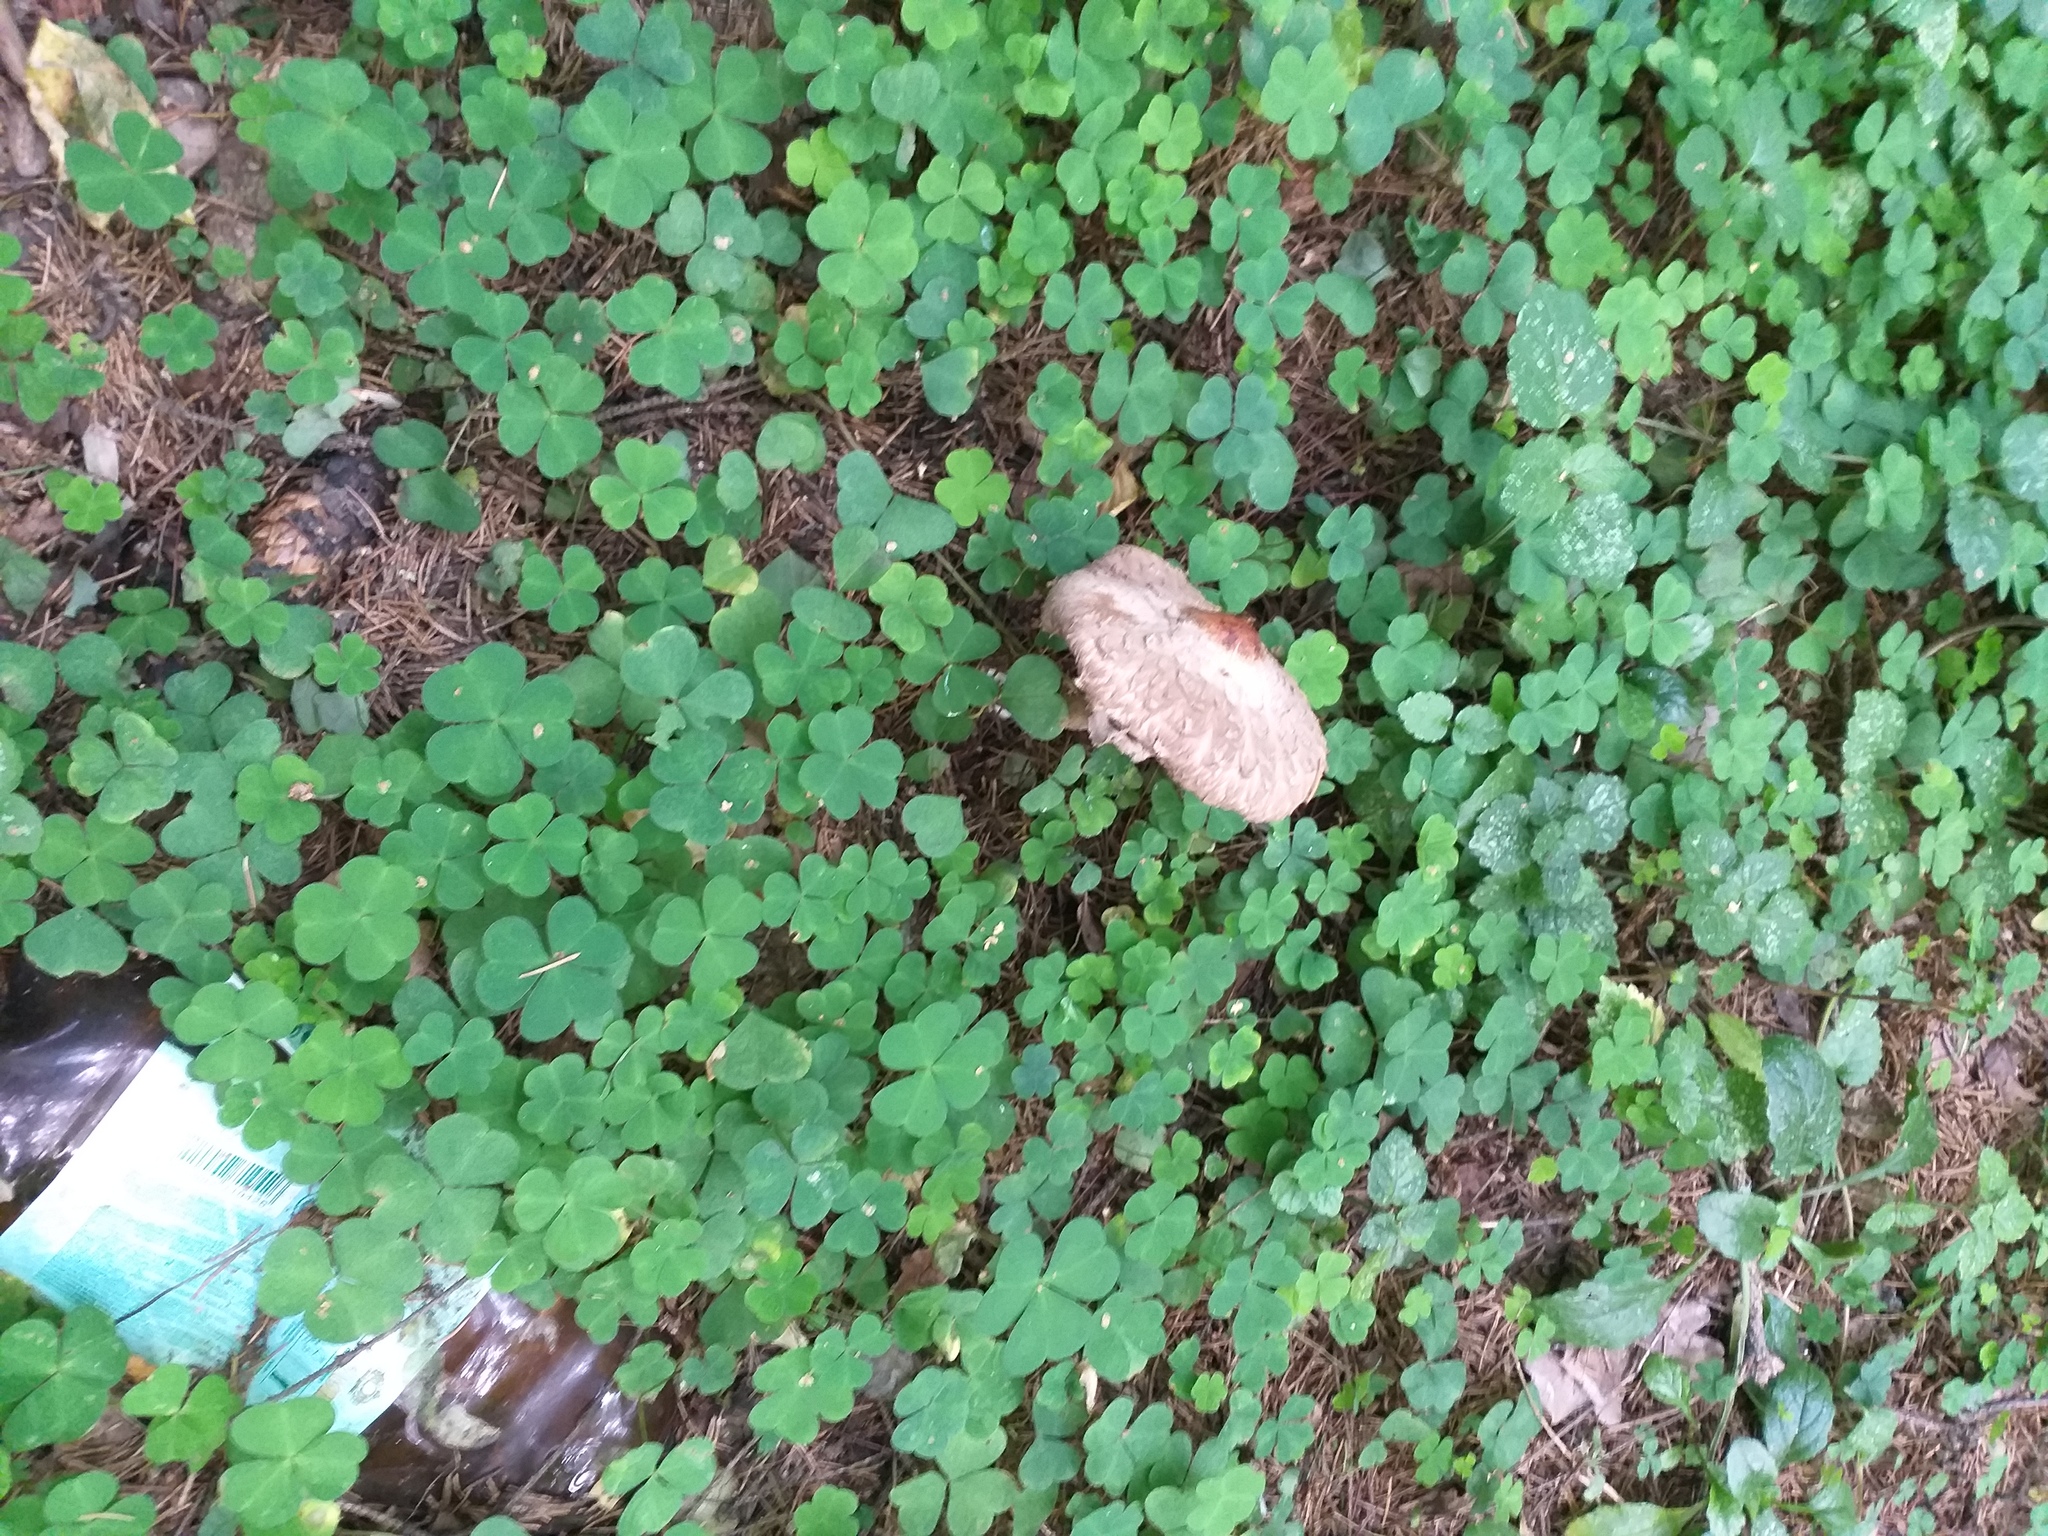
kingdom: Fungi
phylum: Basidiomycota
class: Agaricomycetes
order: Agaricales
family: Agaricaceae
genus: Chlorophyllum
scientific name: Chlorophyllum rhacodes
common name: Shaggy parasol
